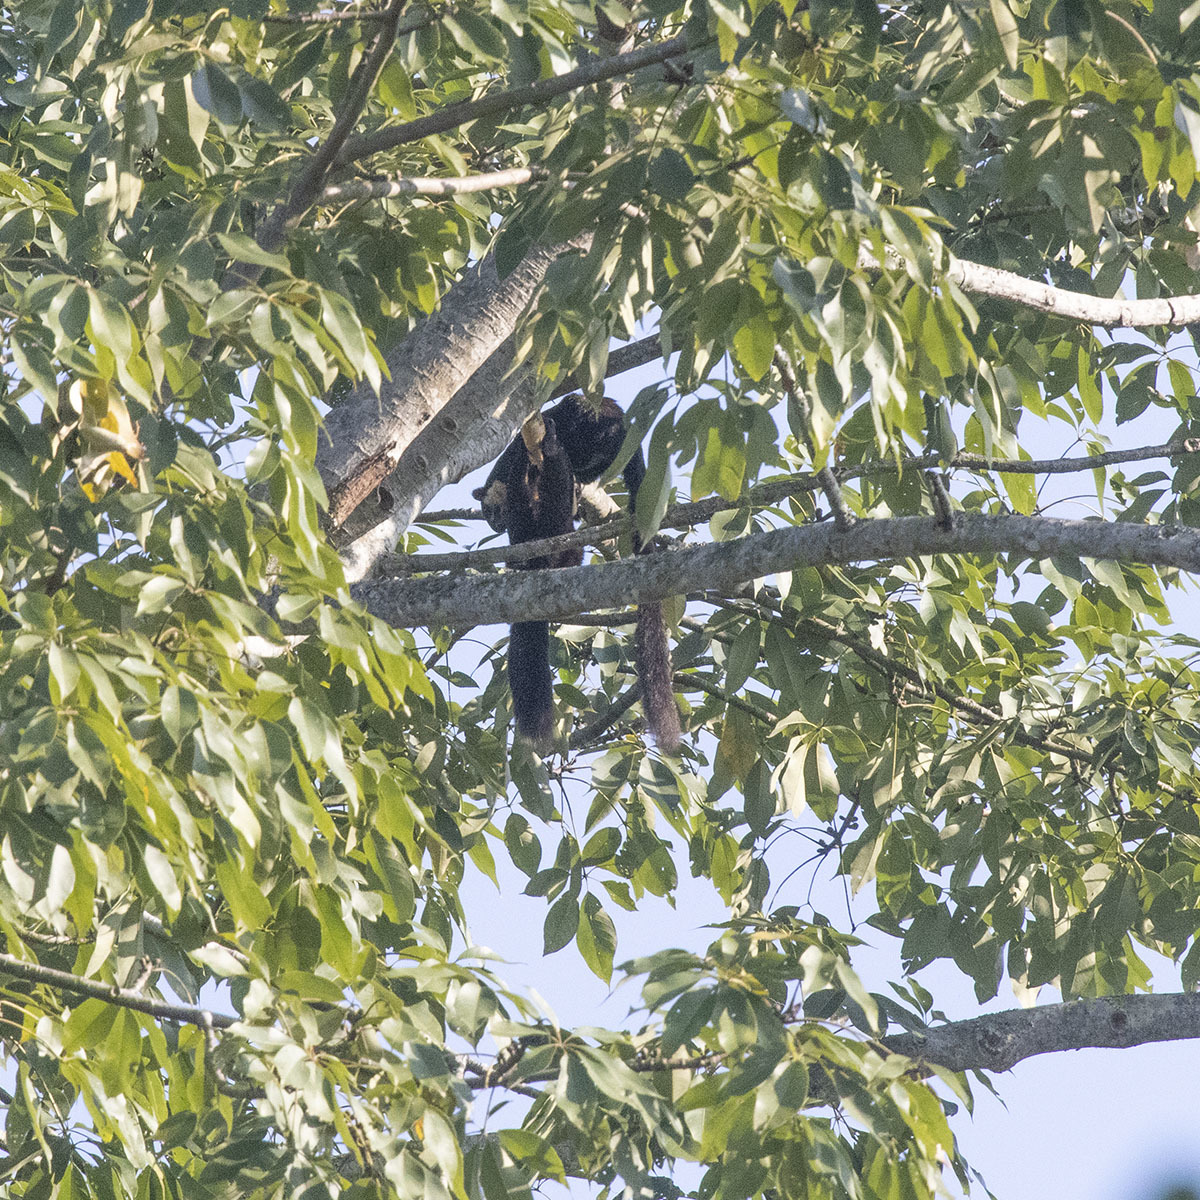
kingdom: Animalia
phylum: Chordata
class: Mammalia
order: Rodentia
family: Sciuridae
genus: Ratufa
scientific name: Ratufa bicolor
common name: Black giant squirrel
